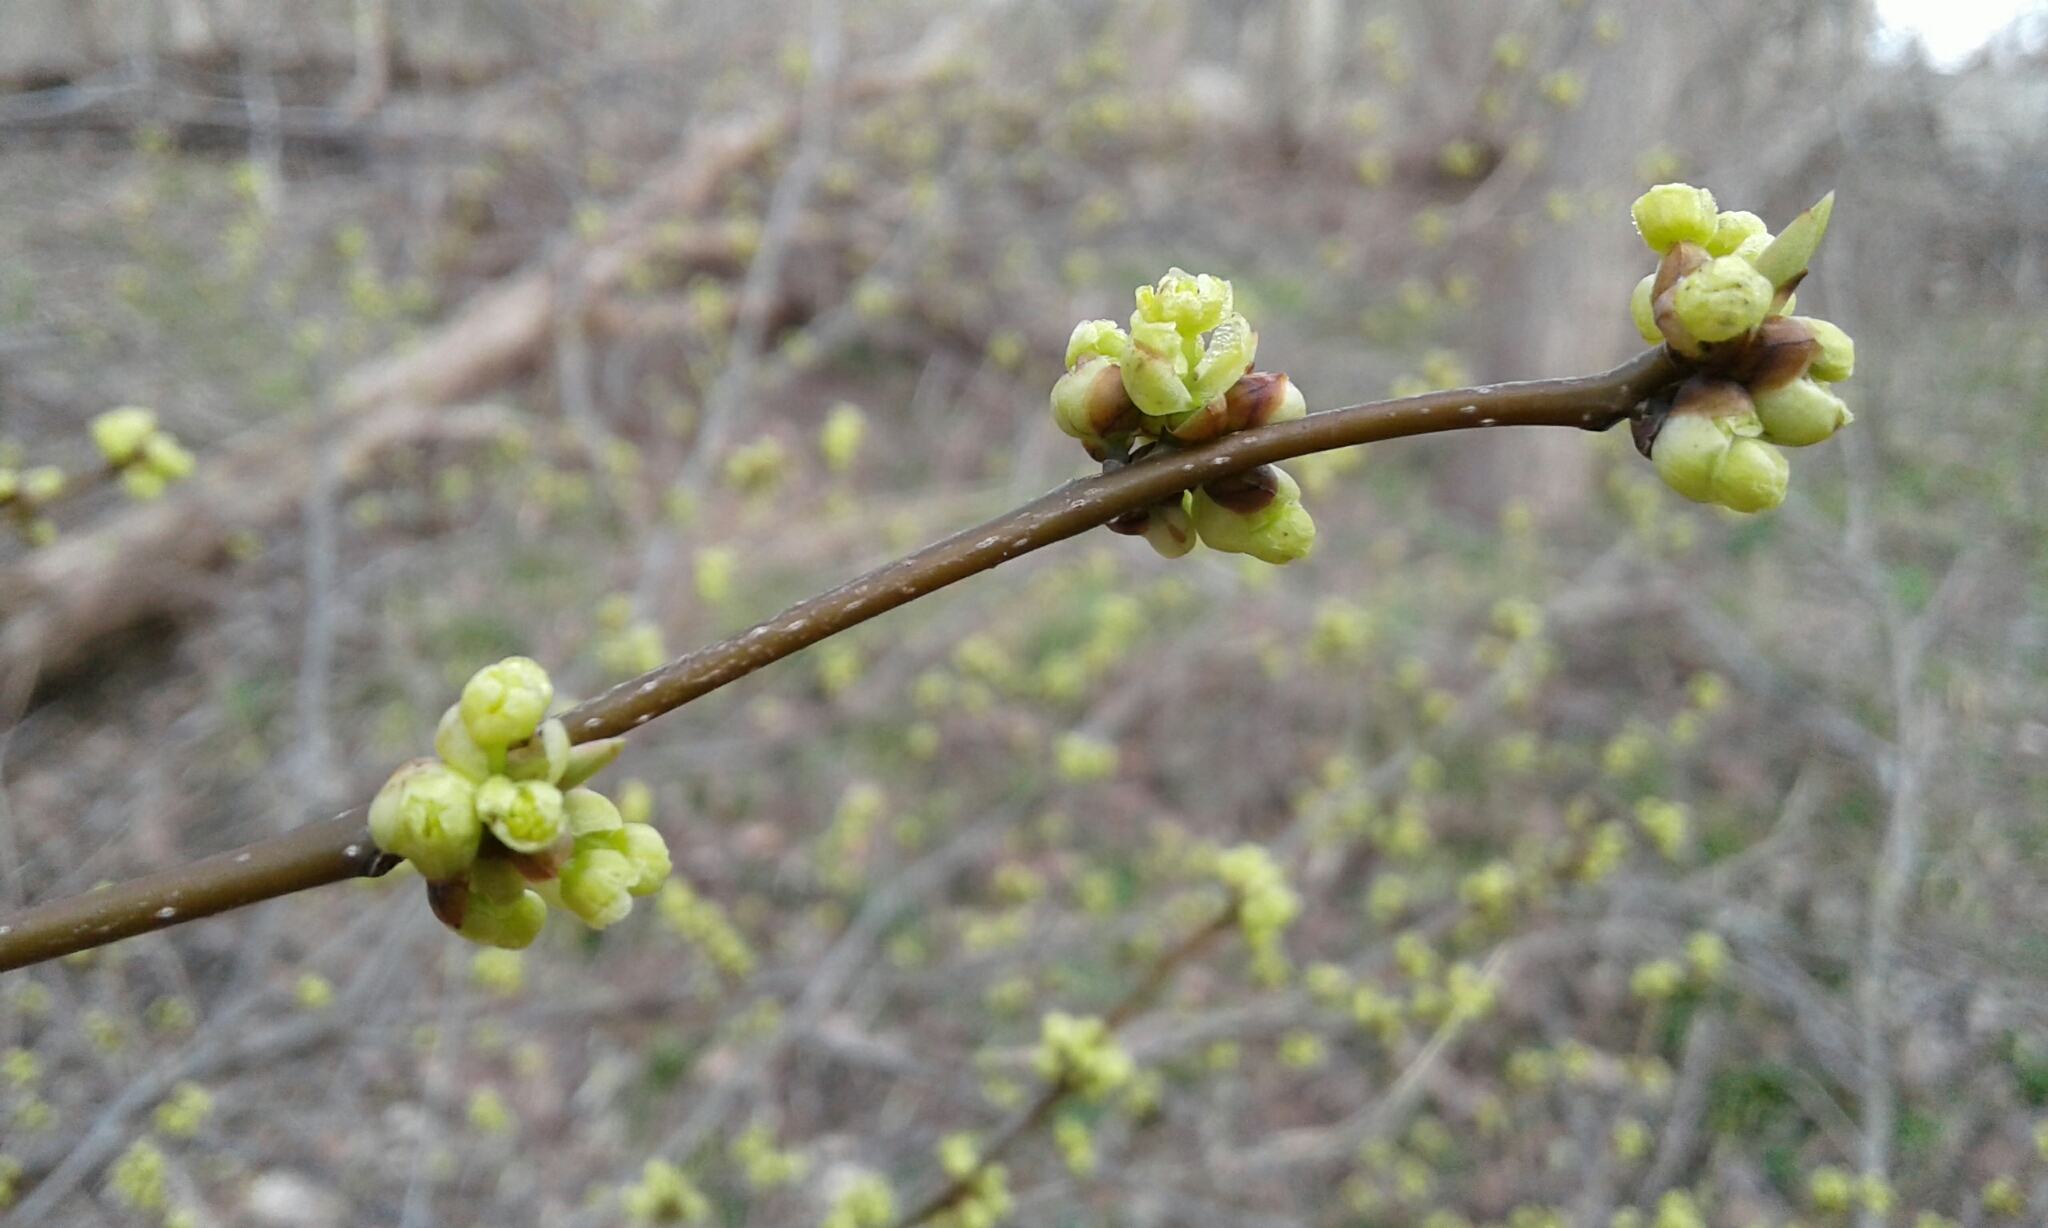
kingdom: Plantae
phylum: Tracheophyta
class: Magnoliopsida
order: Laurales
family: Lauraceae
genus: Lindera
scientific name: Lindera benzoin
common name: Spicebush
